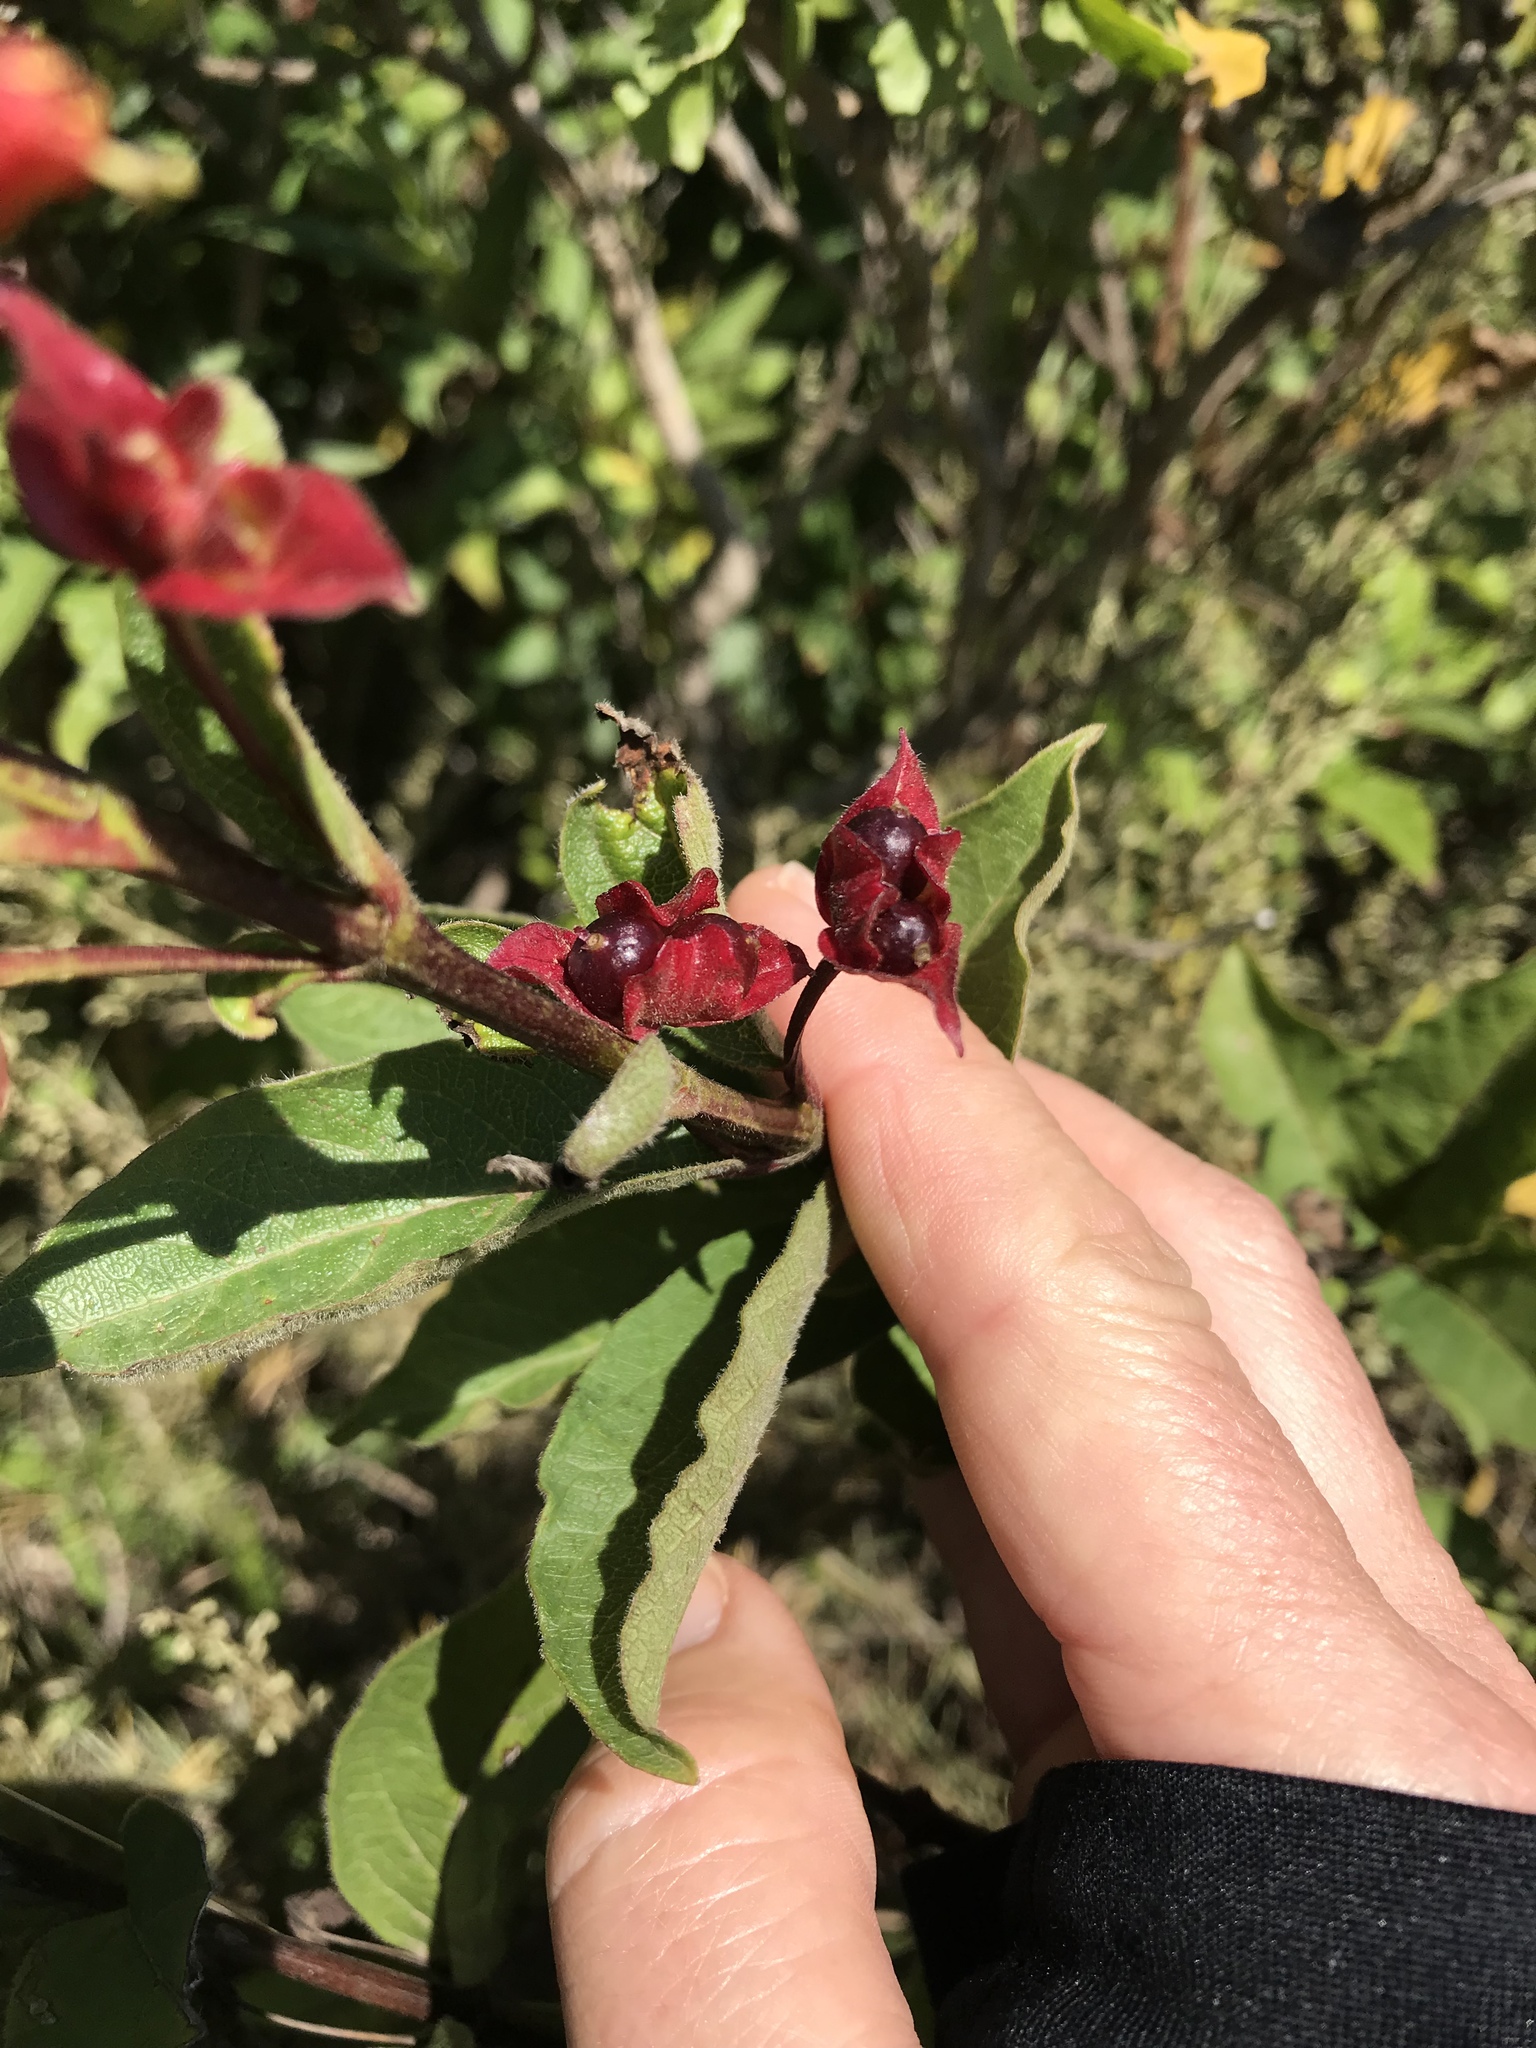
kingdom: Plantae
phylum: Tracheophyta
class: Magnoliopsida
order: Dipsacales
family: Caprifoliaceae
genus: Lonicera
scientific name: Lonicera involucrata
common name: Californian honeysuckle
